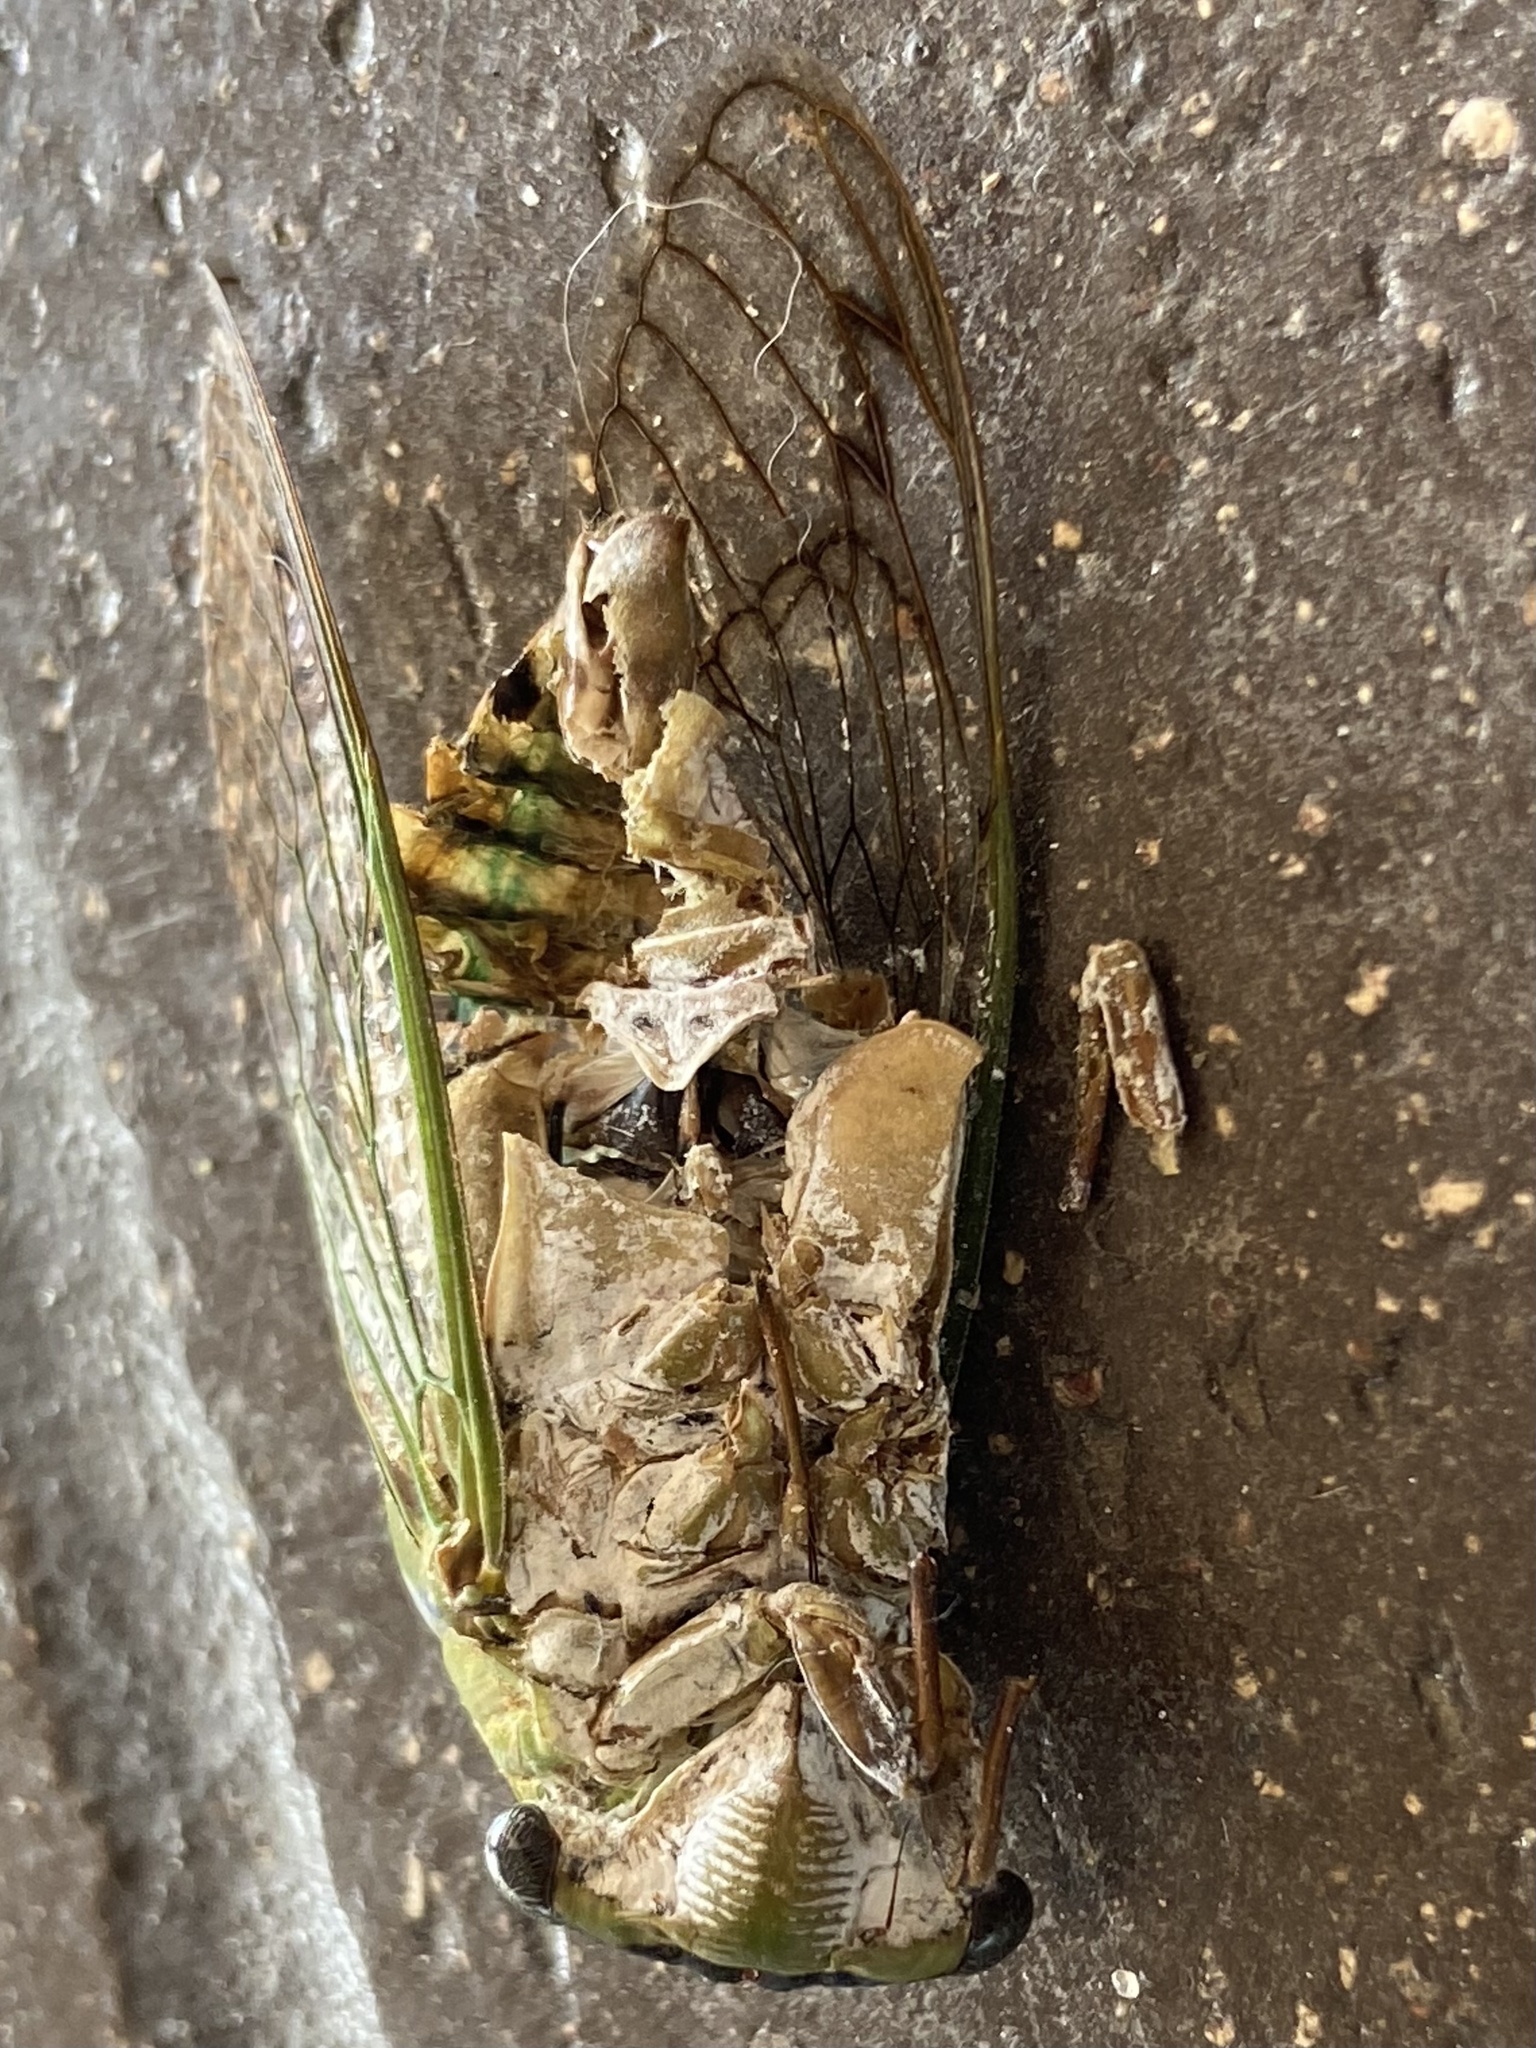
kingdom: Animalia
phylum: Arthropoda
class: Insecta
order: Hemiptera
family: Cicadidae
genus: Neotibicen
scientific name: Neotibicen superbus
